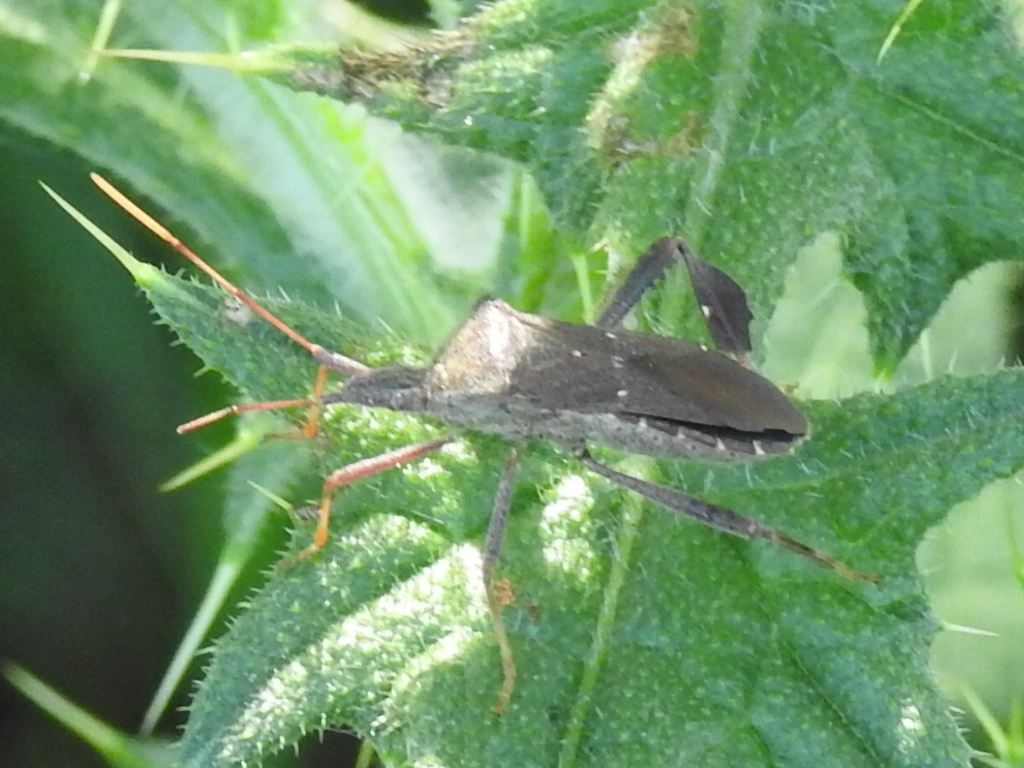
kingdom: Animalia
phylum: Arthropoda
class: Insecta
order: Hemiptera
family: Coreidae
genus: Leptoglossus
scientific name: Leptoglossus oppositus
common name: Northern leaf-footed bug
